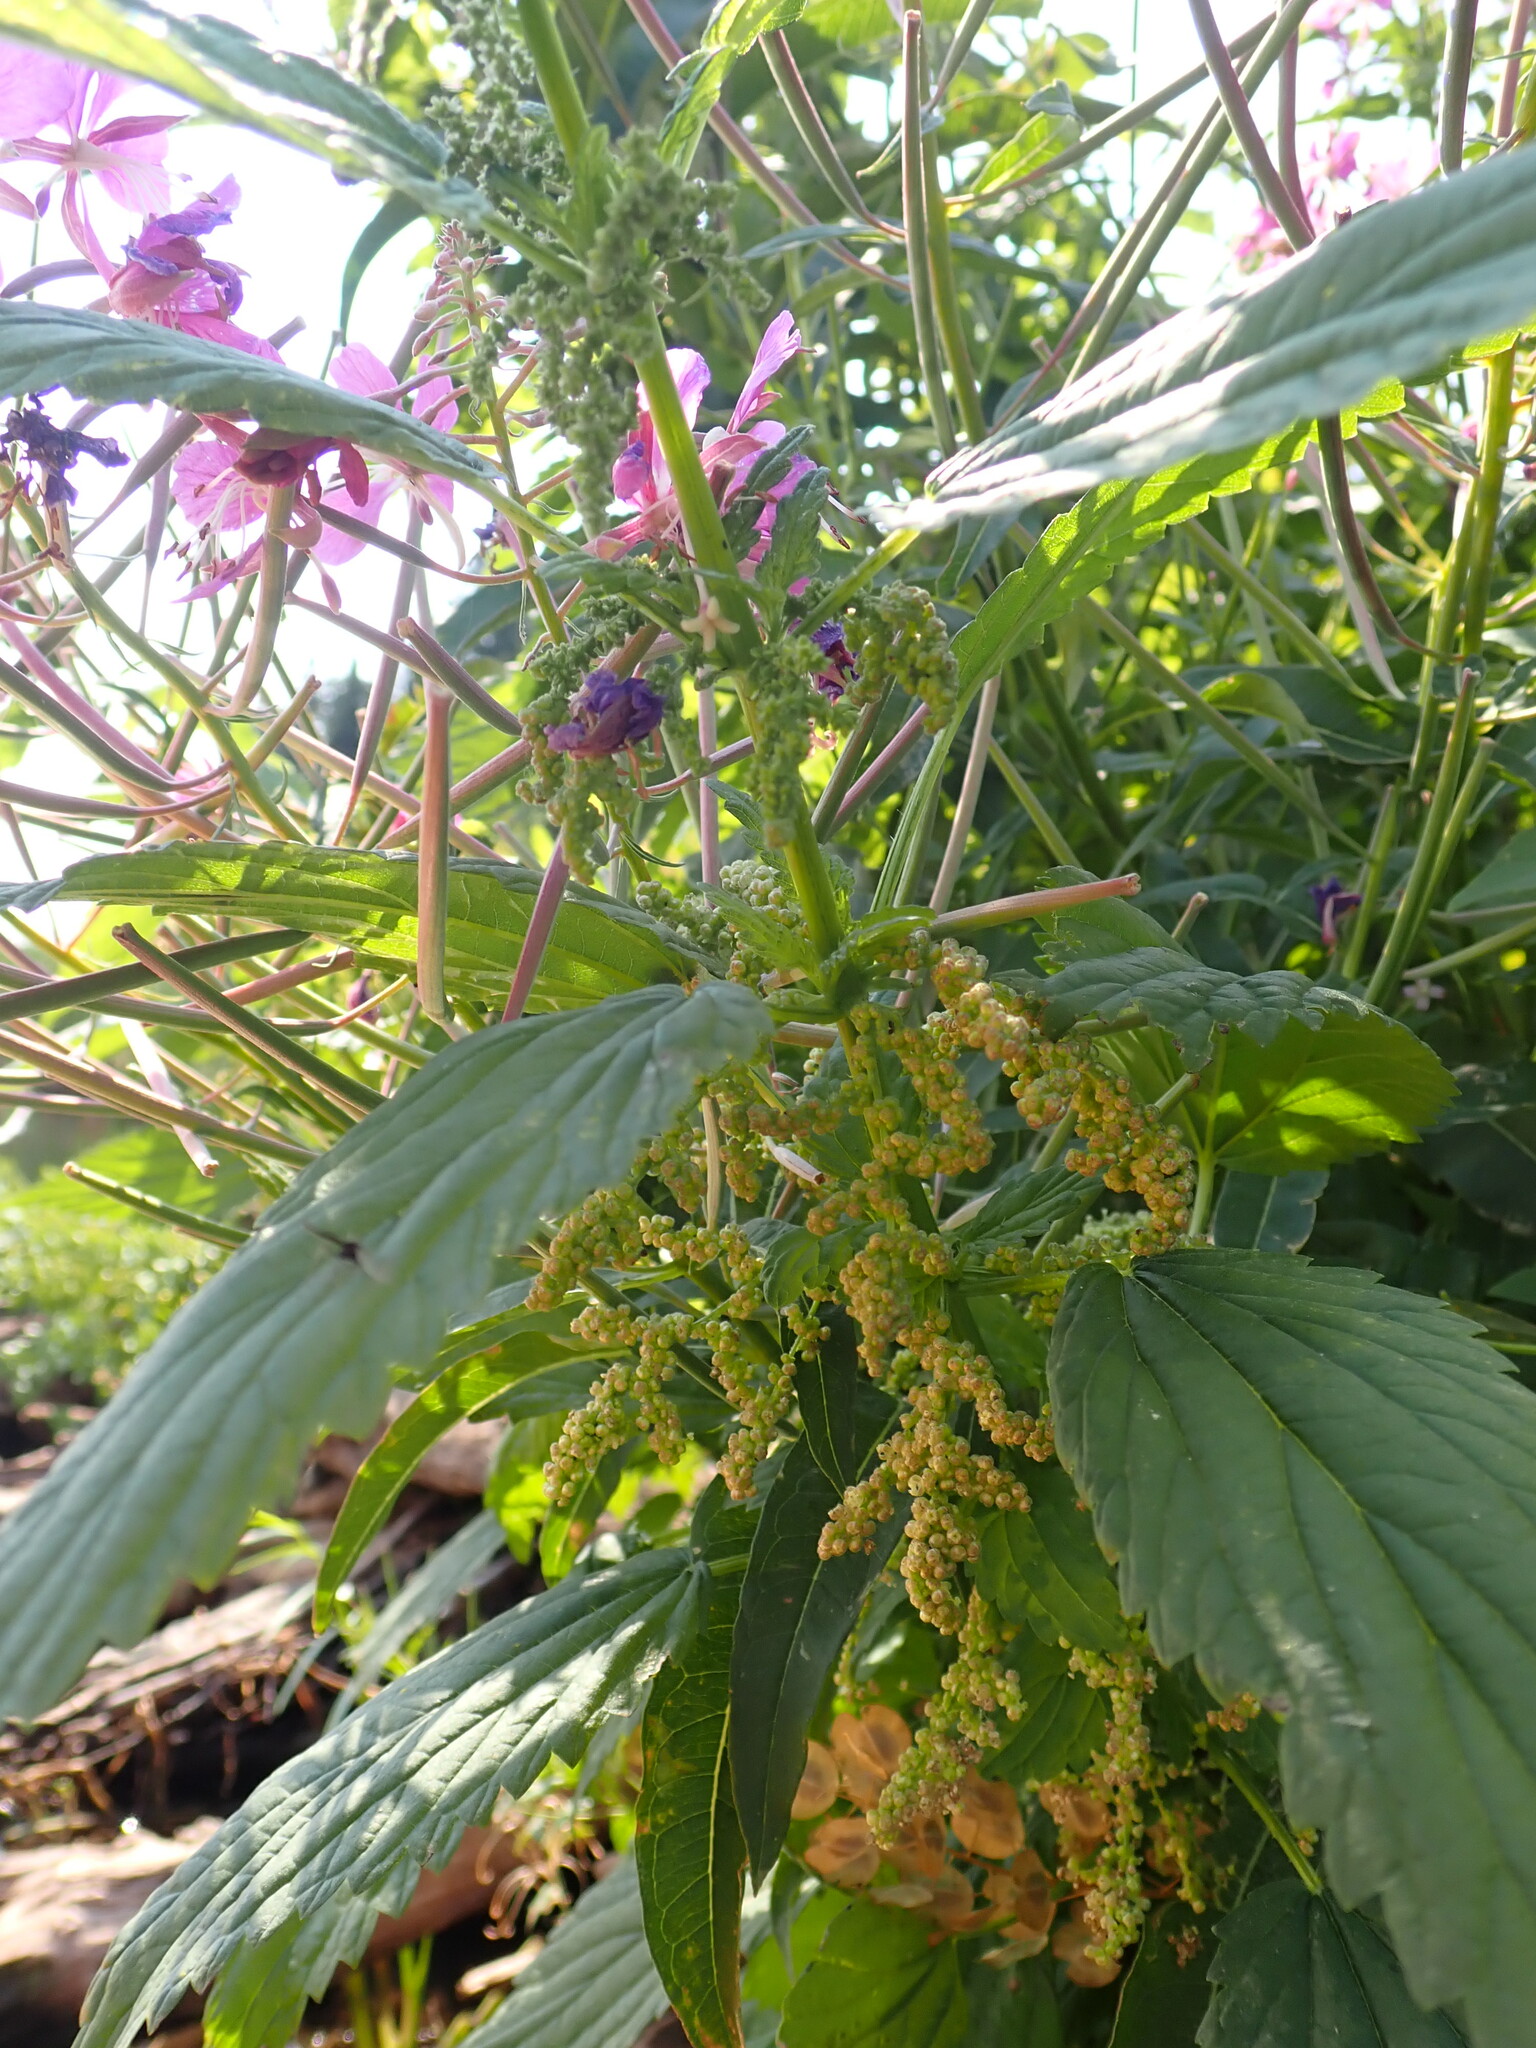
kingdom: Plantae
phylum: Tracheophyta
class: Magnoliopsida
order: Rosales
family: Urticaceae
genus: Urtica
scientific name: Urtica gracilis
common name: Slender stinging nettle
